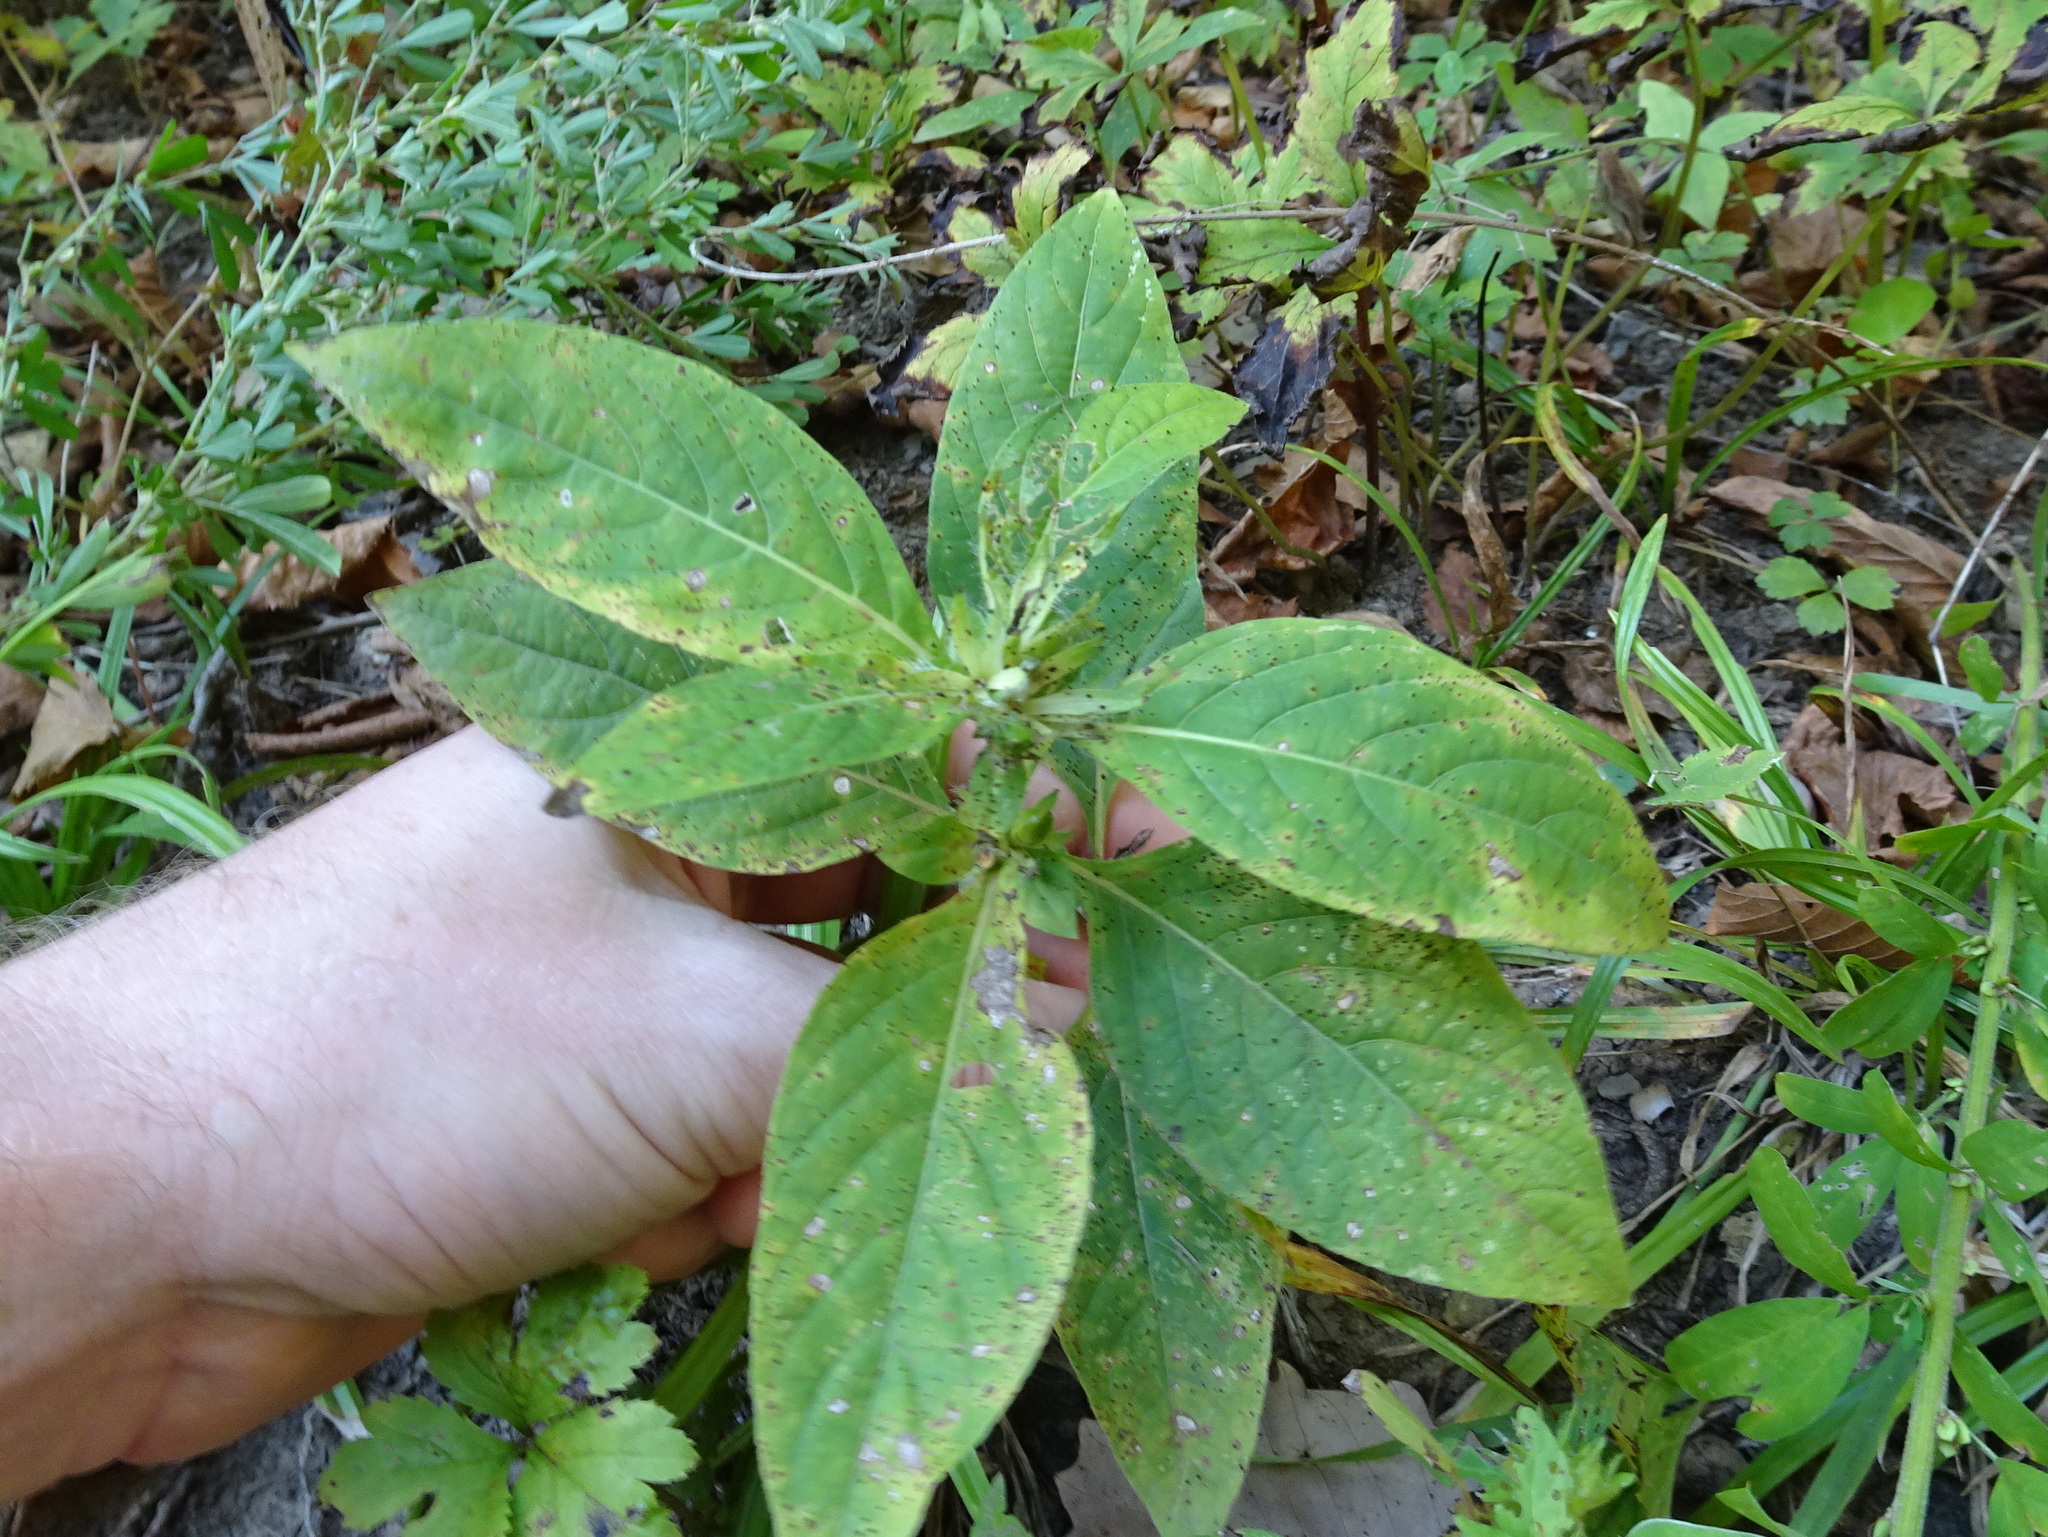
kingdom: Plantae
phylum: Tracheophyta
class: Magnoliopsida
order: Lamiales
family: Acanthaceae
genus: Ruellia
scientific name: Ruellia strepens
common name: Limestone wild petunia
